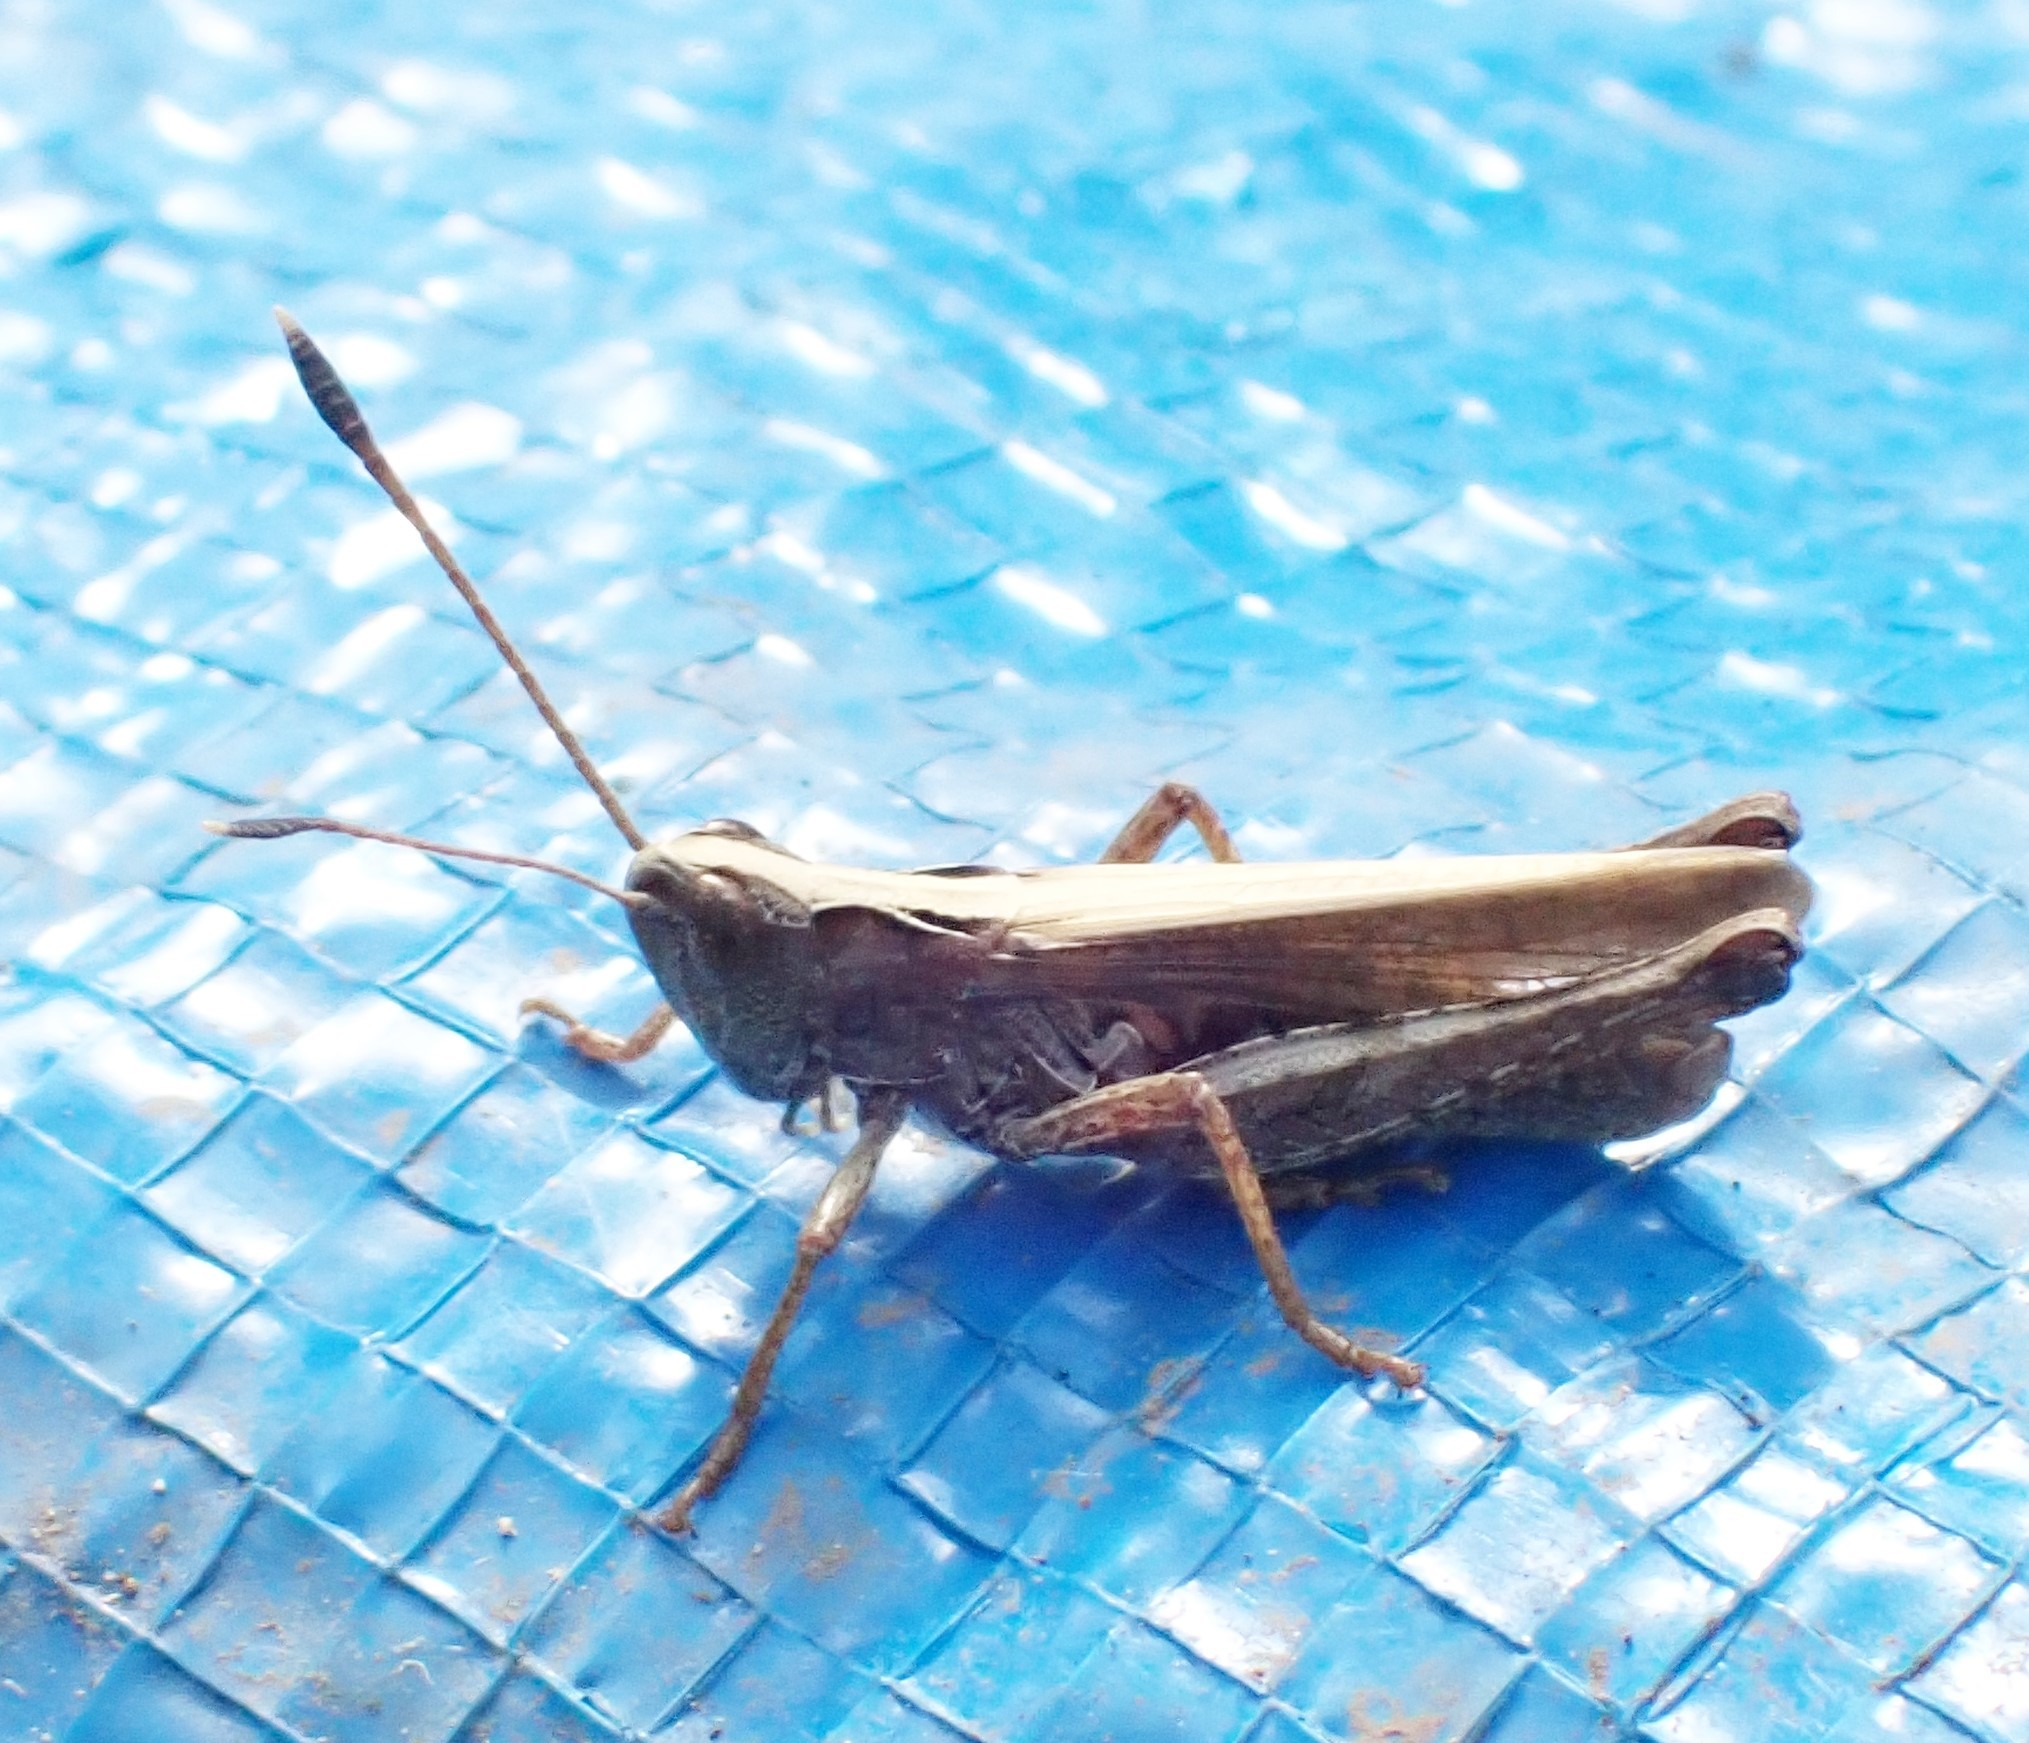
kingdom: Animalia
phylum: Arthropoda
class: Insecta
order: Orthoptera
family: Acrididae
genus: Gomphocerippus
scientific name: Gomphocerippus rufus
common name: Rufous grasshopper
